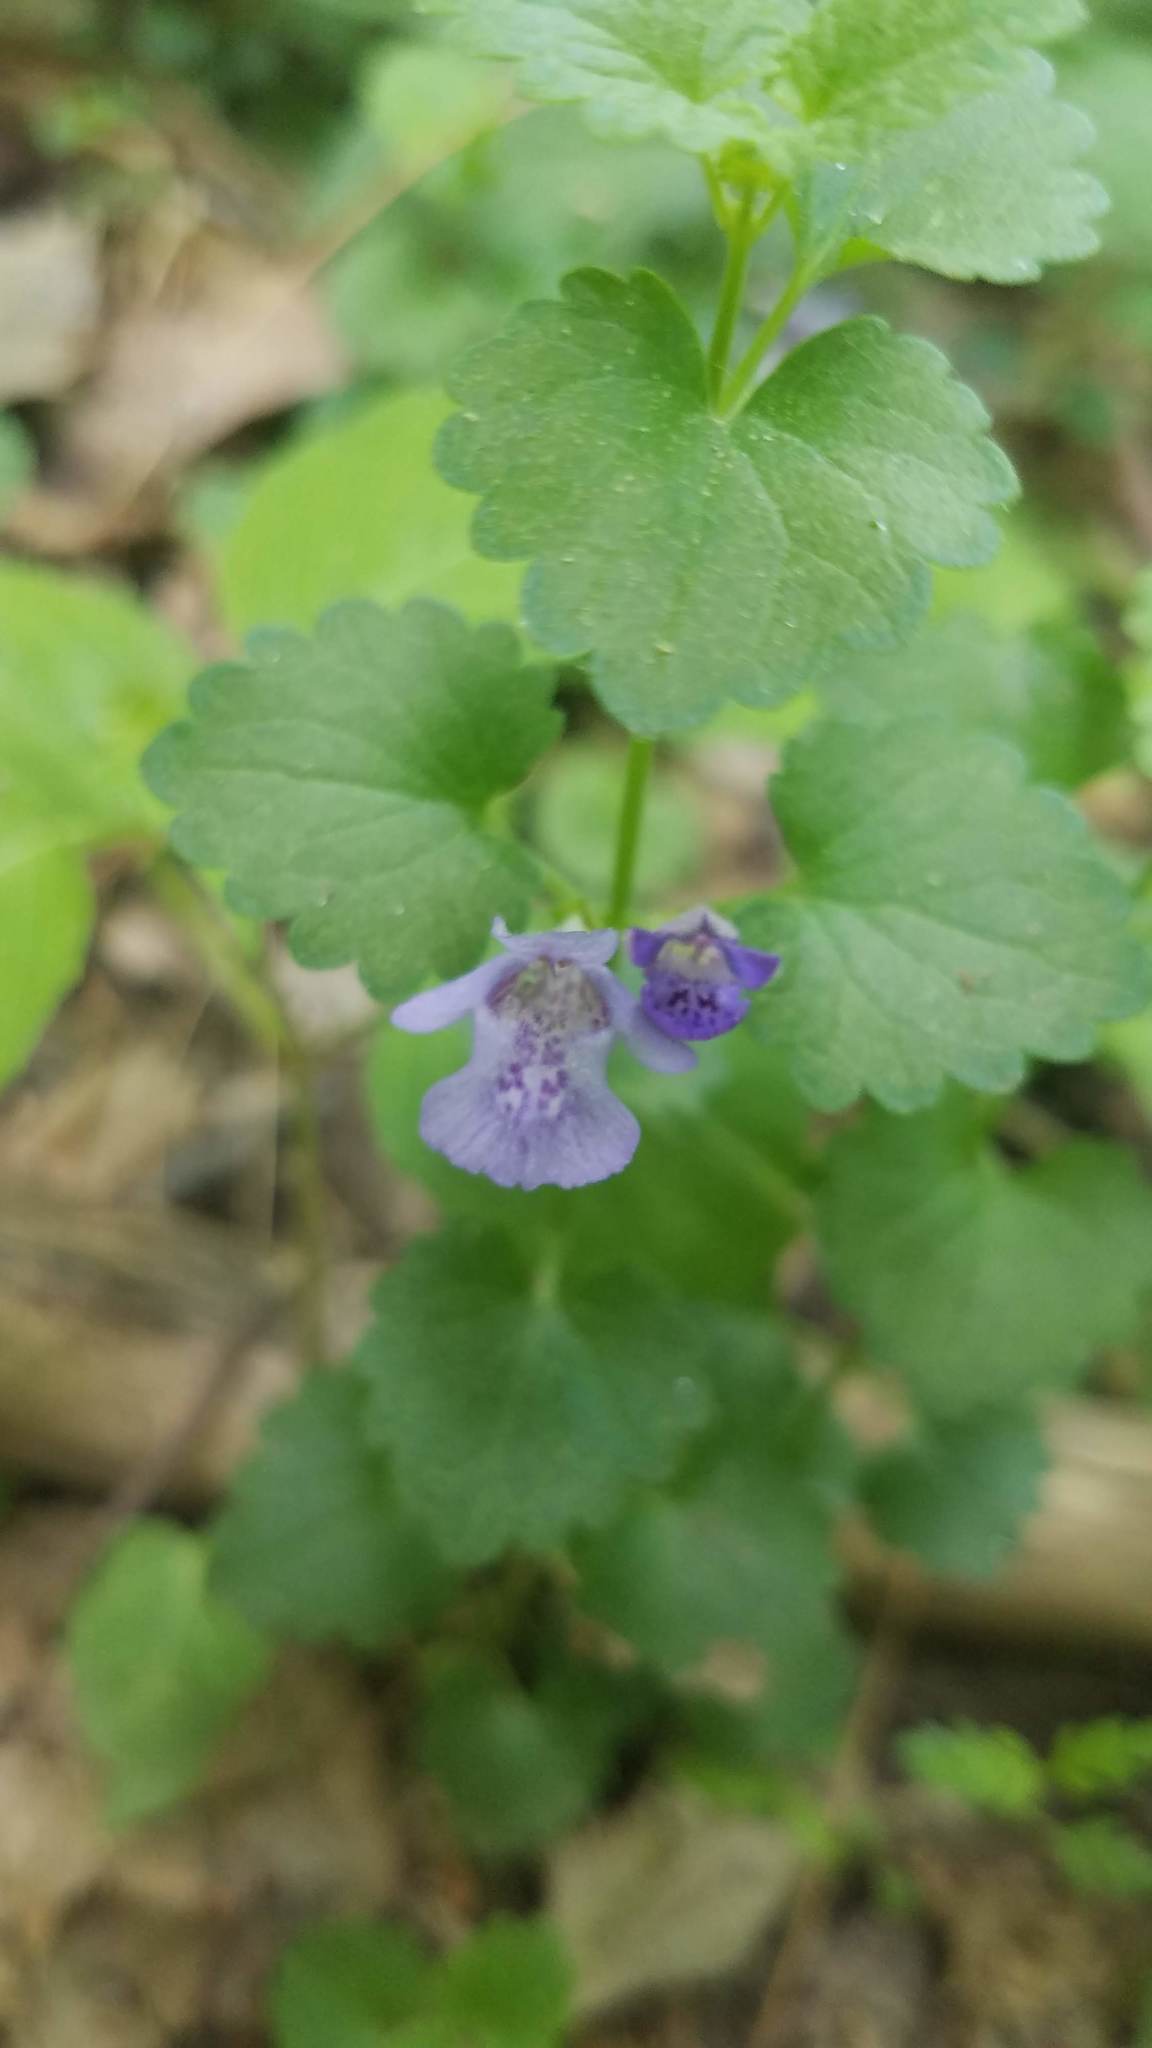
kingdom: Plantae
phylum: Tracheophyta
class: Magnoliopsida
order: Lamiales
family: Lamiaceae
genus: Glechoma
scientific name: Glechoma hederacea
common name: Ground ivy
